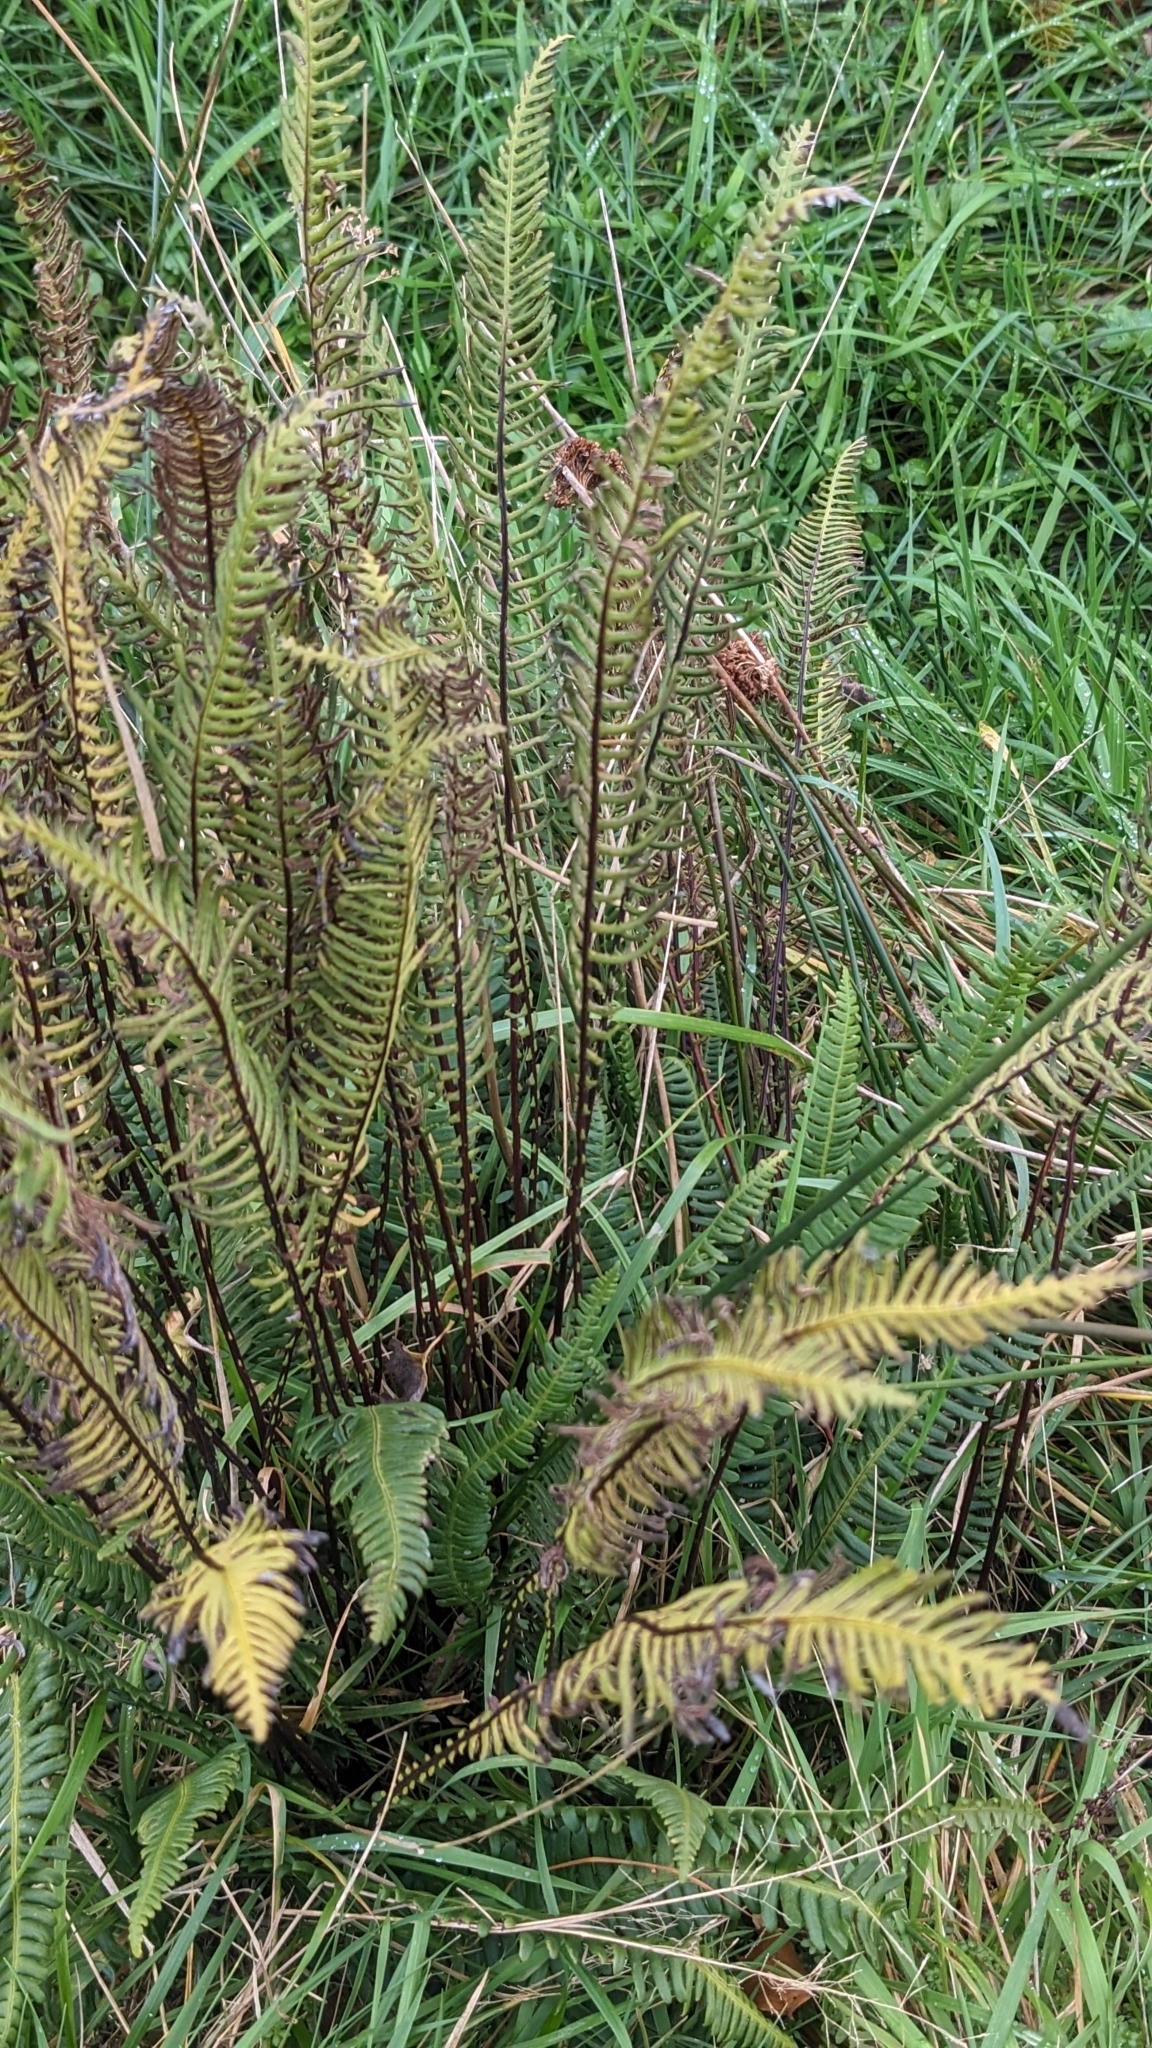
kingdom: Plantae
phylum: Tracheophyta
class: Polypodiopsida
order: Polypodiales
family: Blechnaceae
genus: Struthiopteris
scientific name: Struthiopteris spicant
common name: Deer fern
